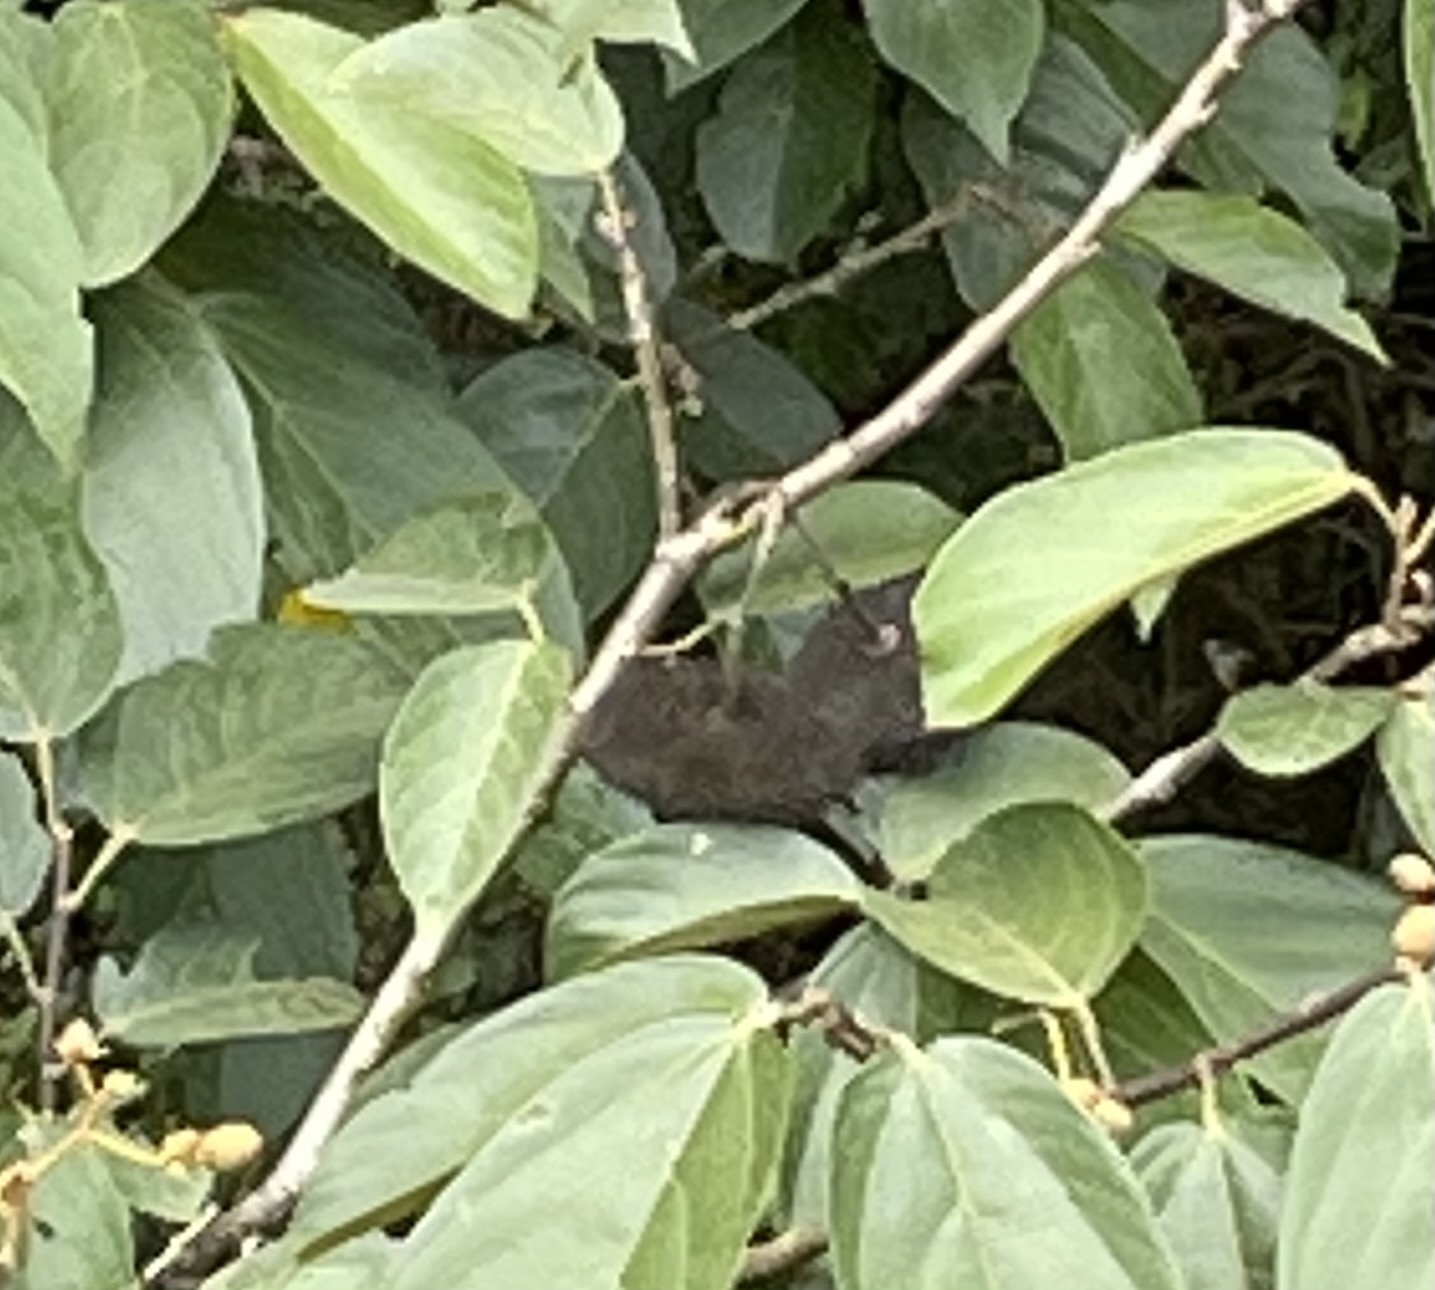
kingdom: Plantae
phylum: Tracheophyta
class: Magnoliopsida
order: Malvales
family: Malvaceae
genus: Apeiba
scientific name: Apeiba tibourbou
